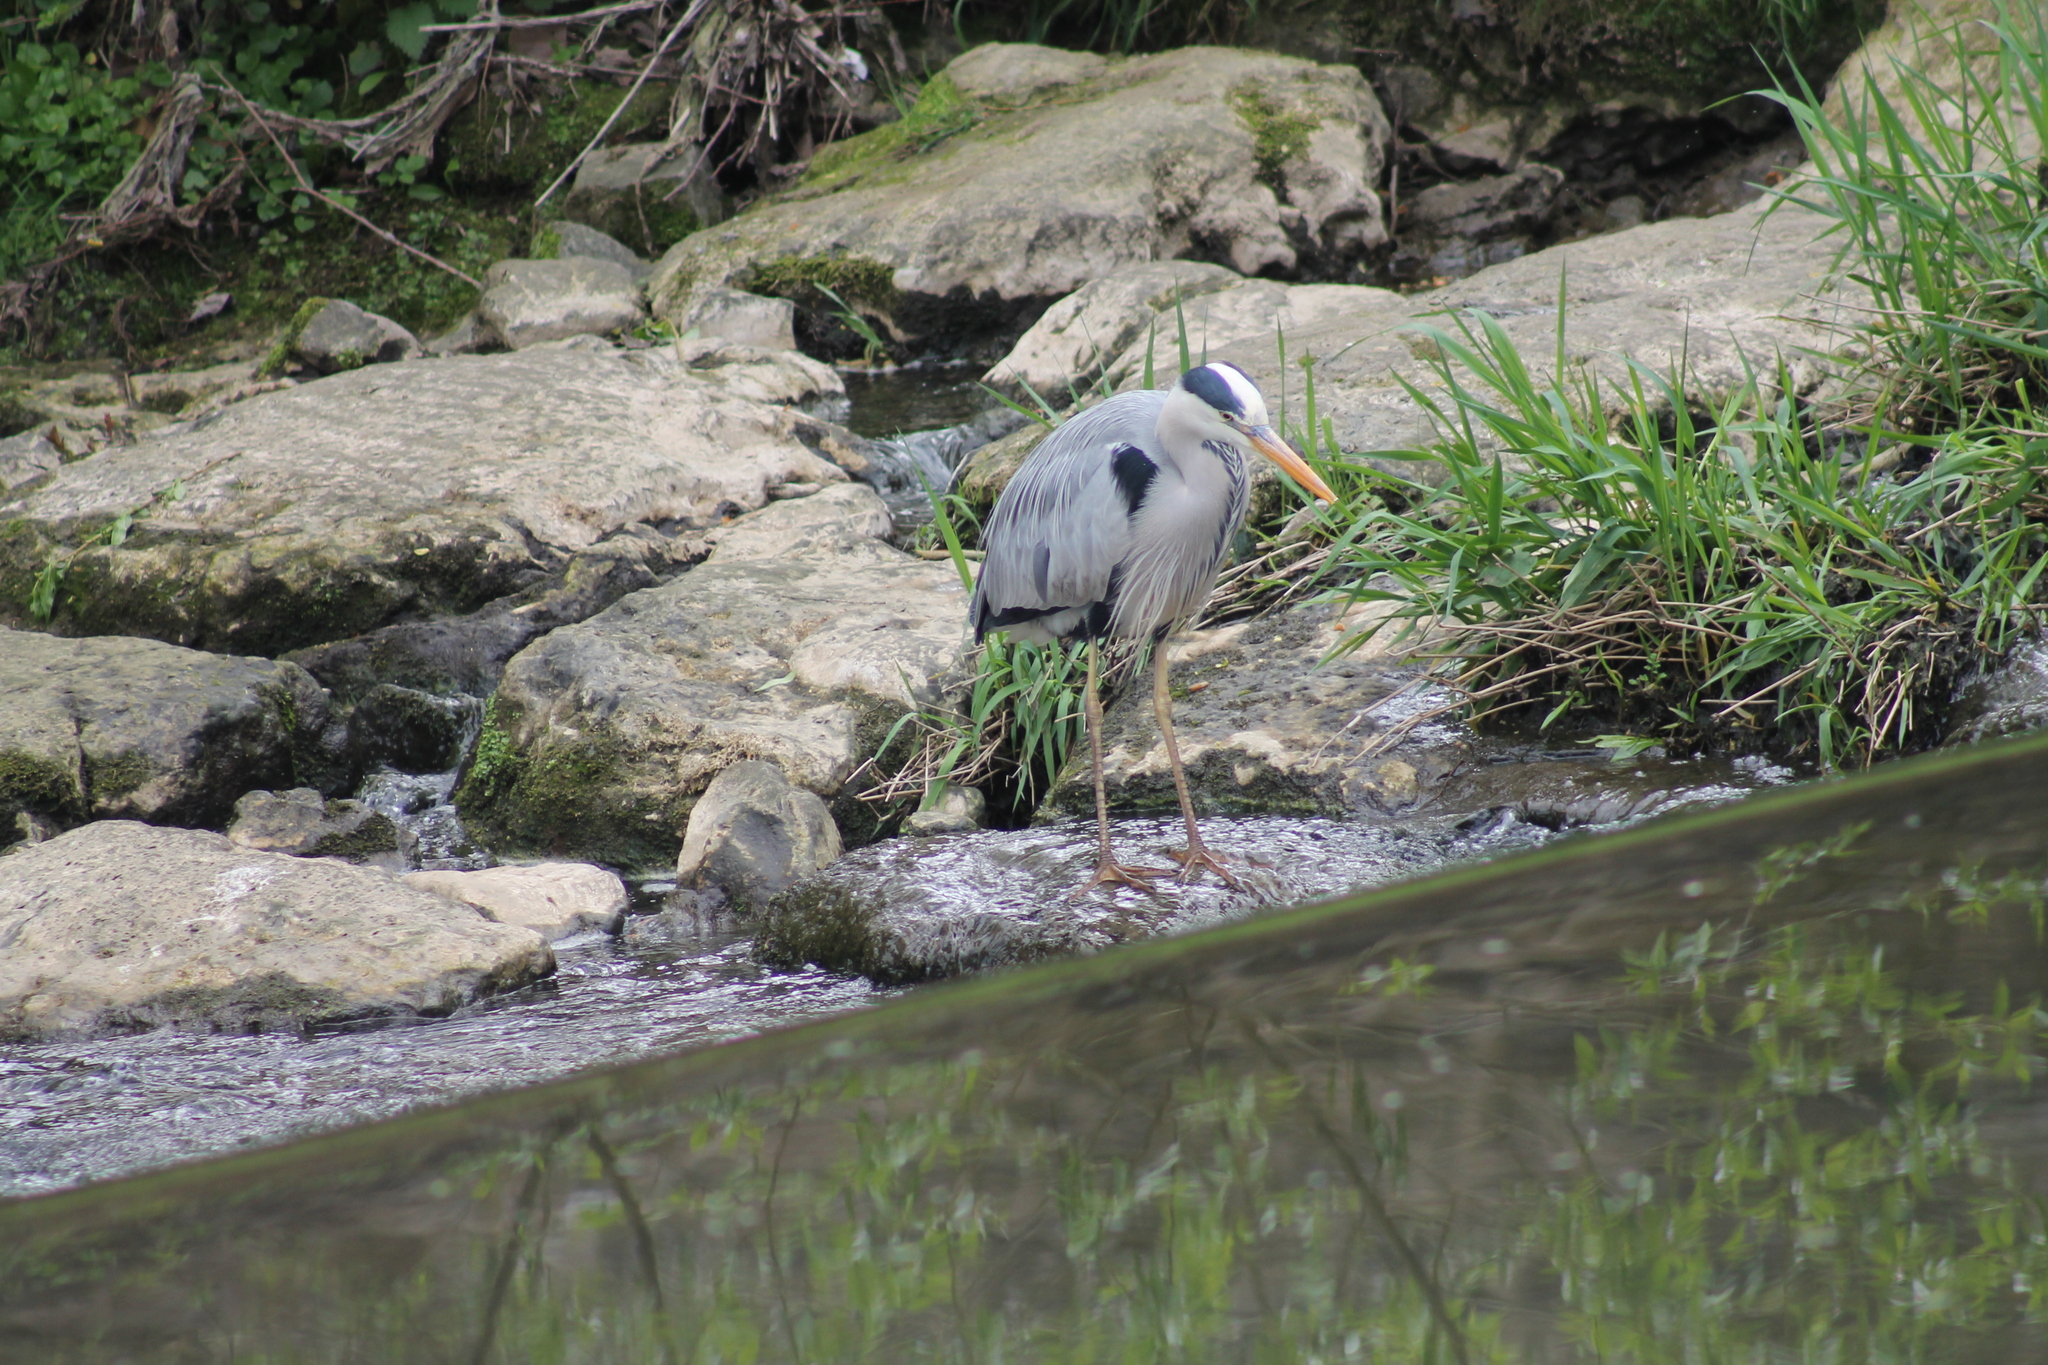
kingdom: Animalia
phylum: Chordata
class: Aves
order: Pelecaniformes
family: Ardeidae
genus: Ardea
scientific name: Ardea cinerea
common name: Grey heron
